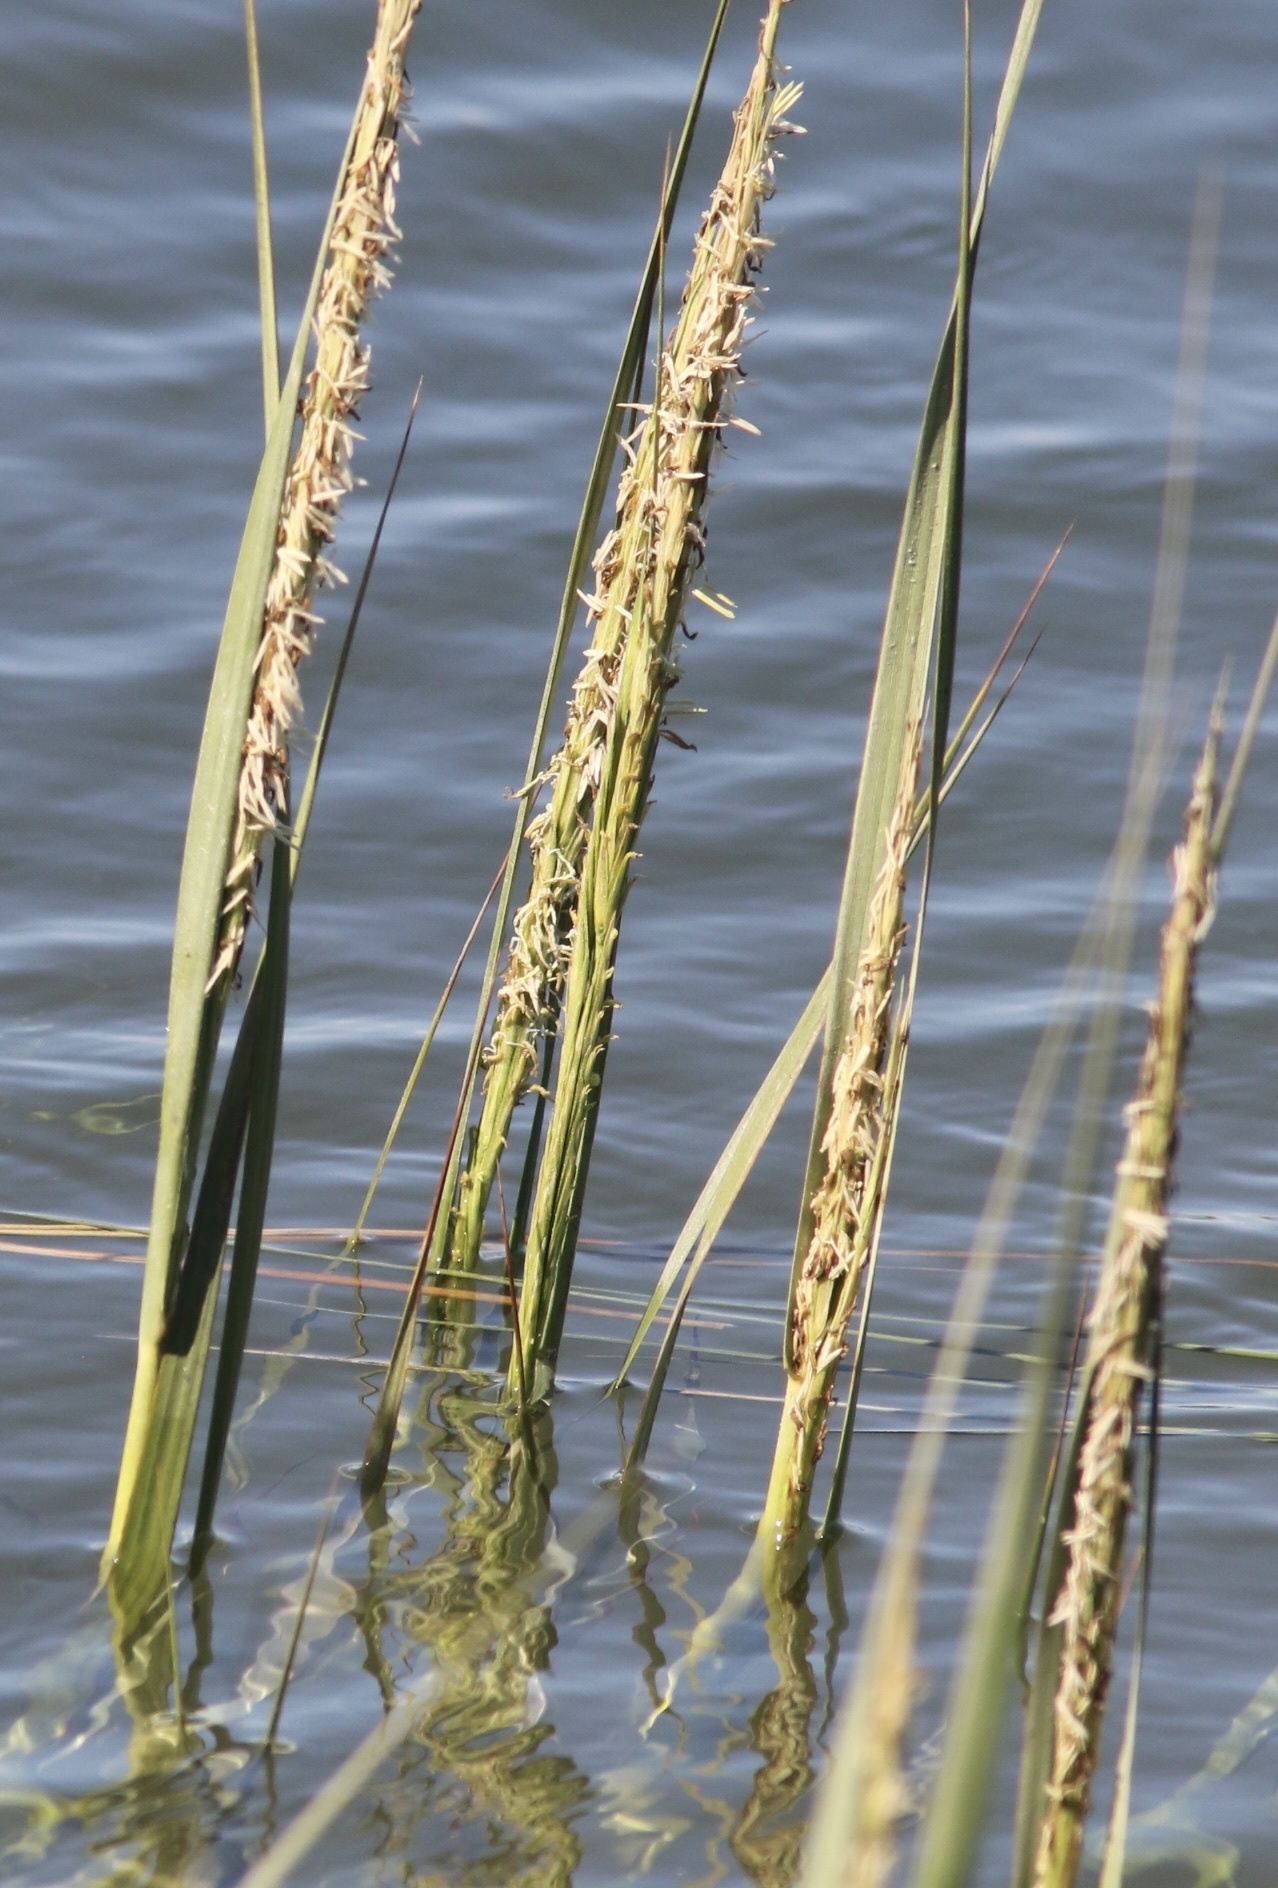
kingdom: Plantae
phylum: Tracheophyta
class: Liliopsida
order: Poales
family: Poaceae
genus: Sporobolus
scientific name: Sporobolus foliosus
